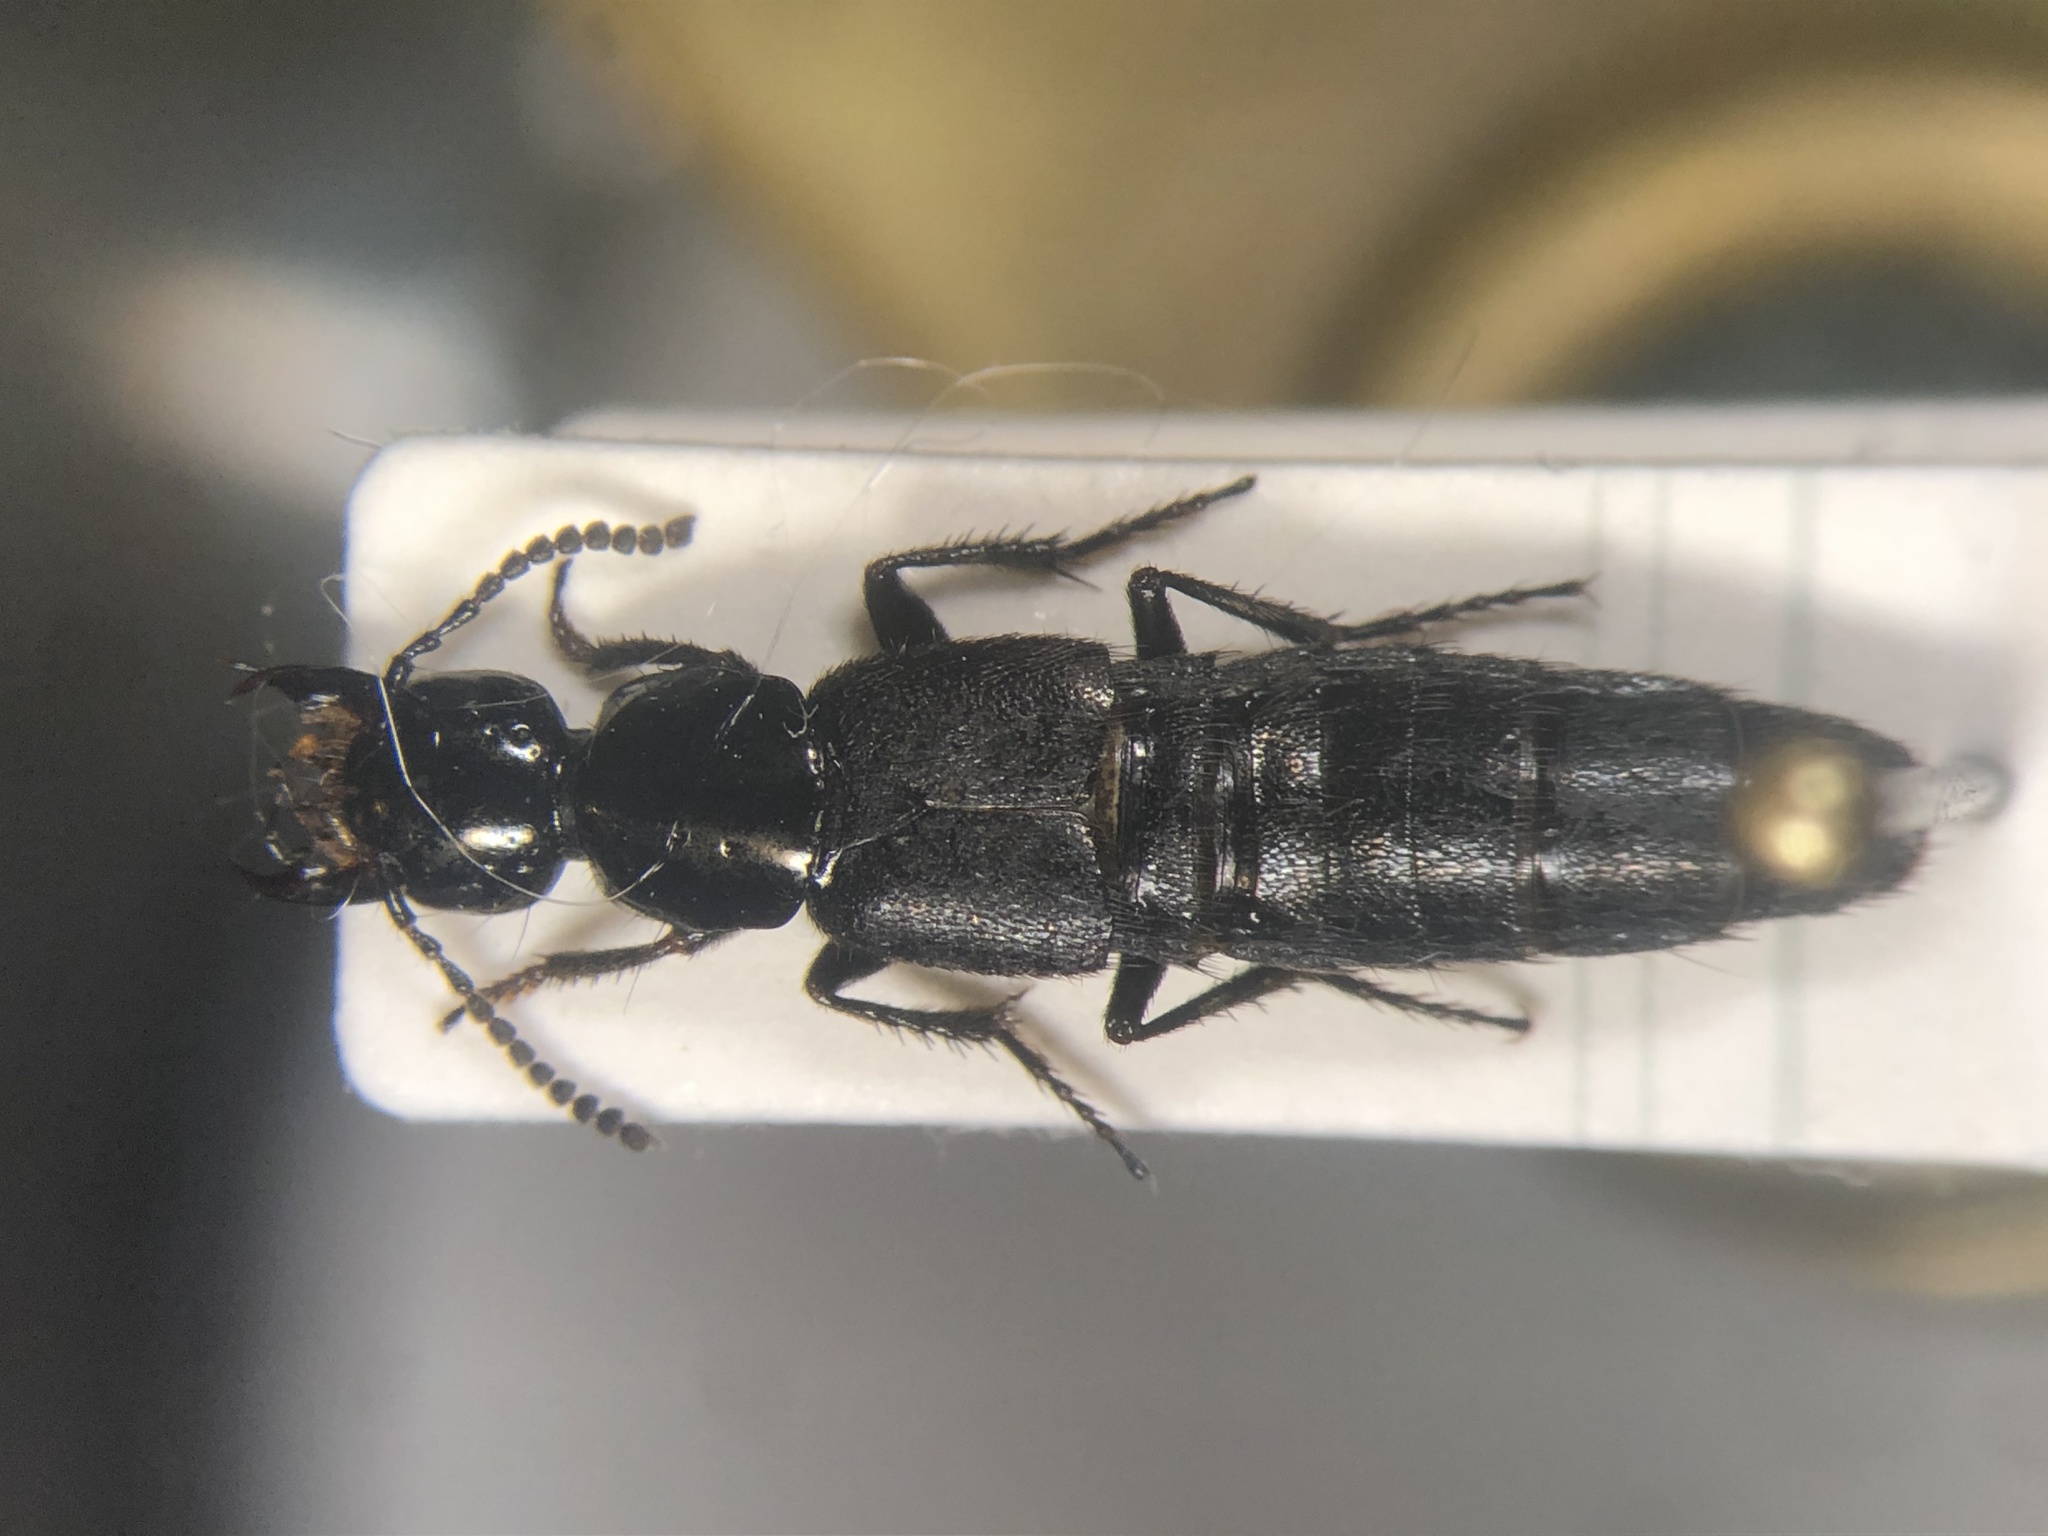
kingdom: Animalia
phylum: Arthropoda
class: Insecta
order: Coleoptera
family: Staphylinidae
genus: Philonthus
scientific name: Philonthus validus
